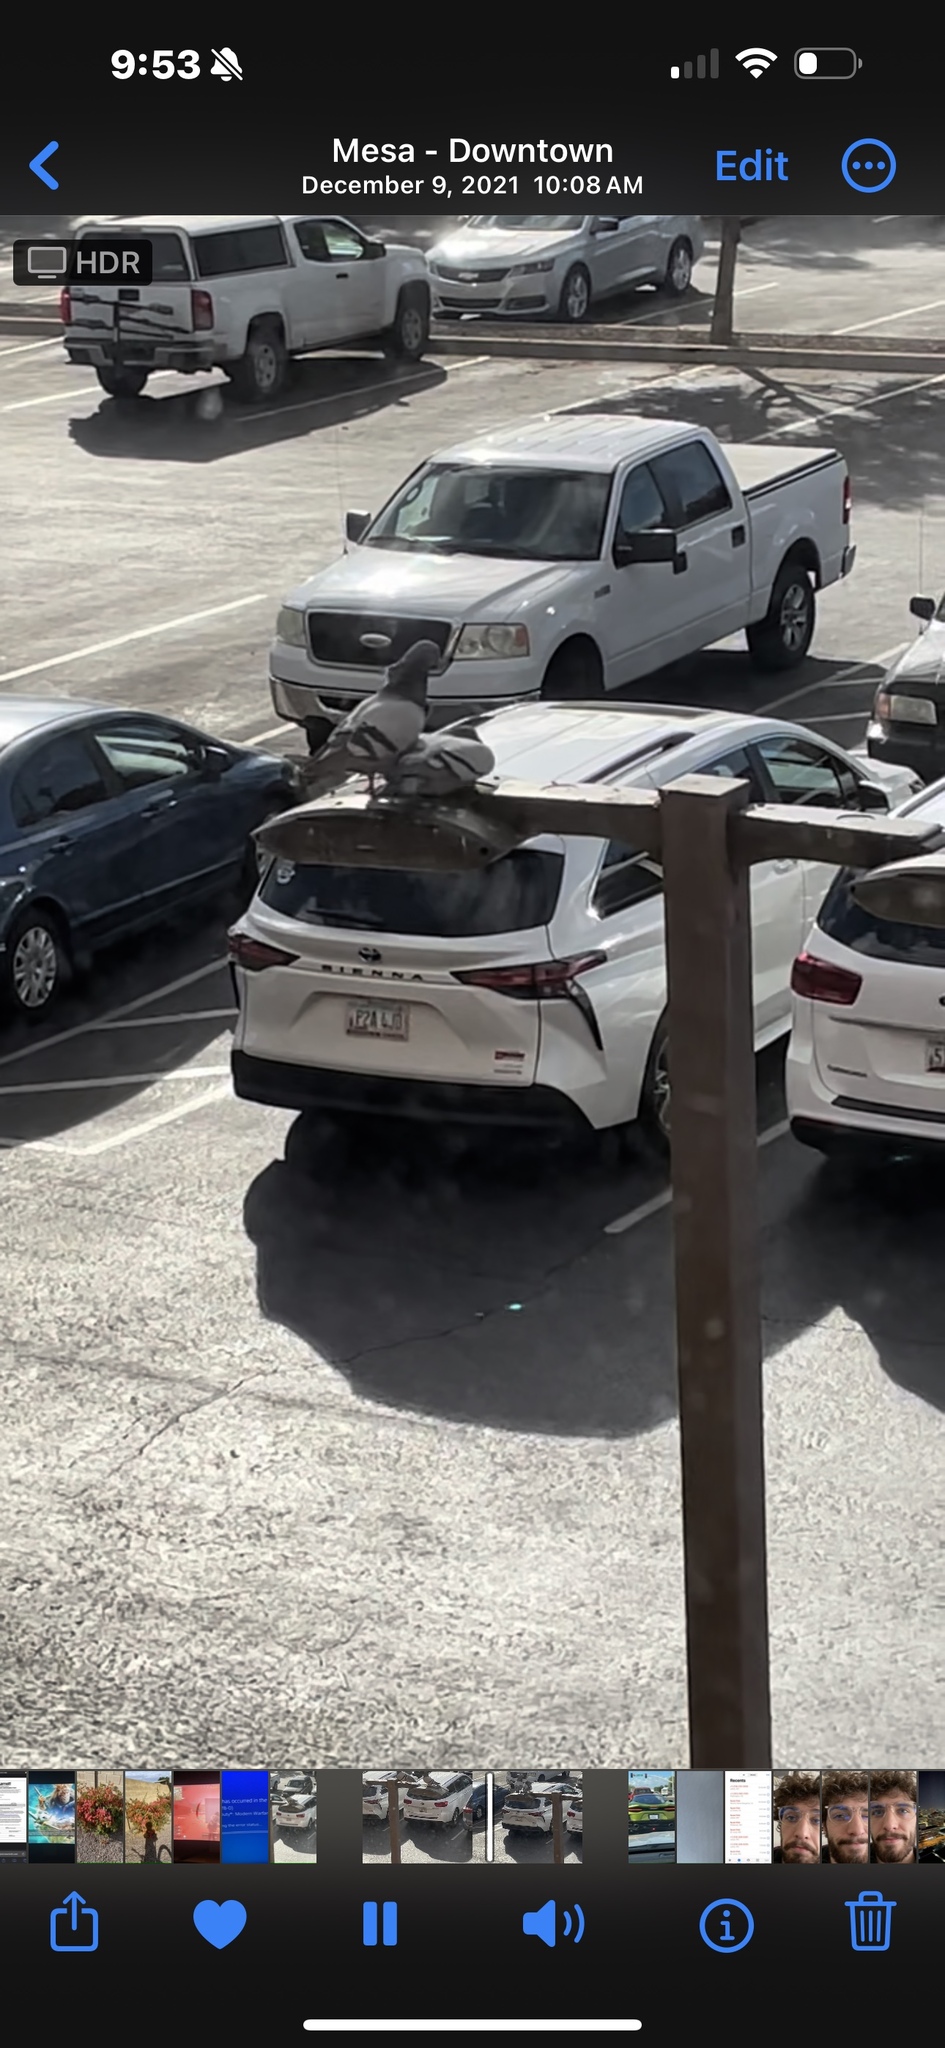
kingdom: Animalia
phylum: Chordata
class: Aves
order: Columbiformes
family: Columbidae
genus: Columba
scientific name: Columba livia
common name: Rock pigeon
